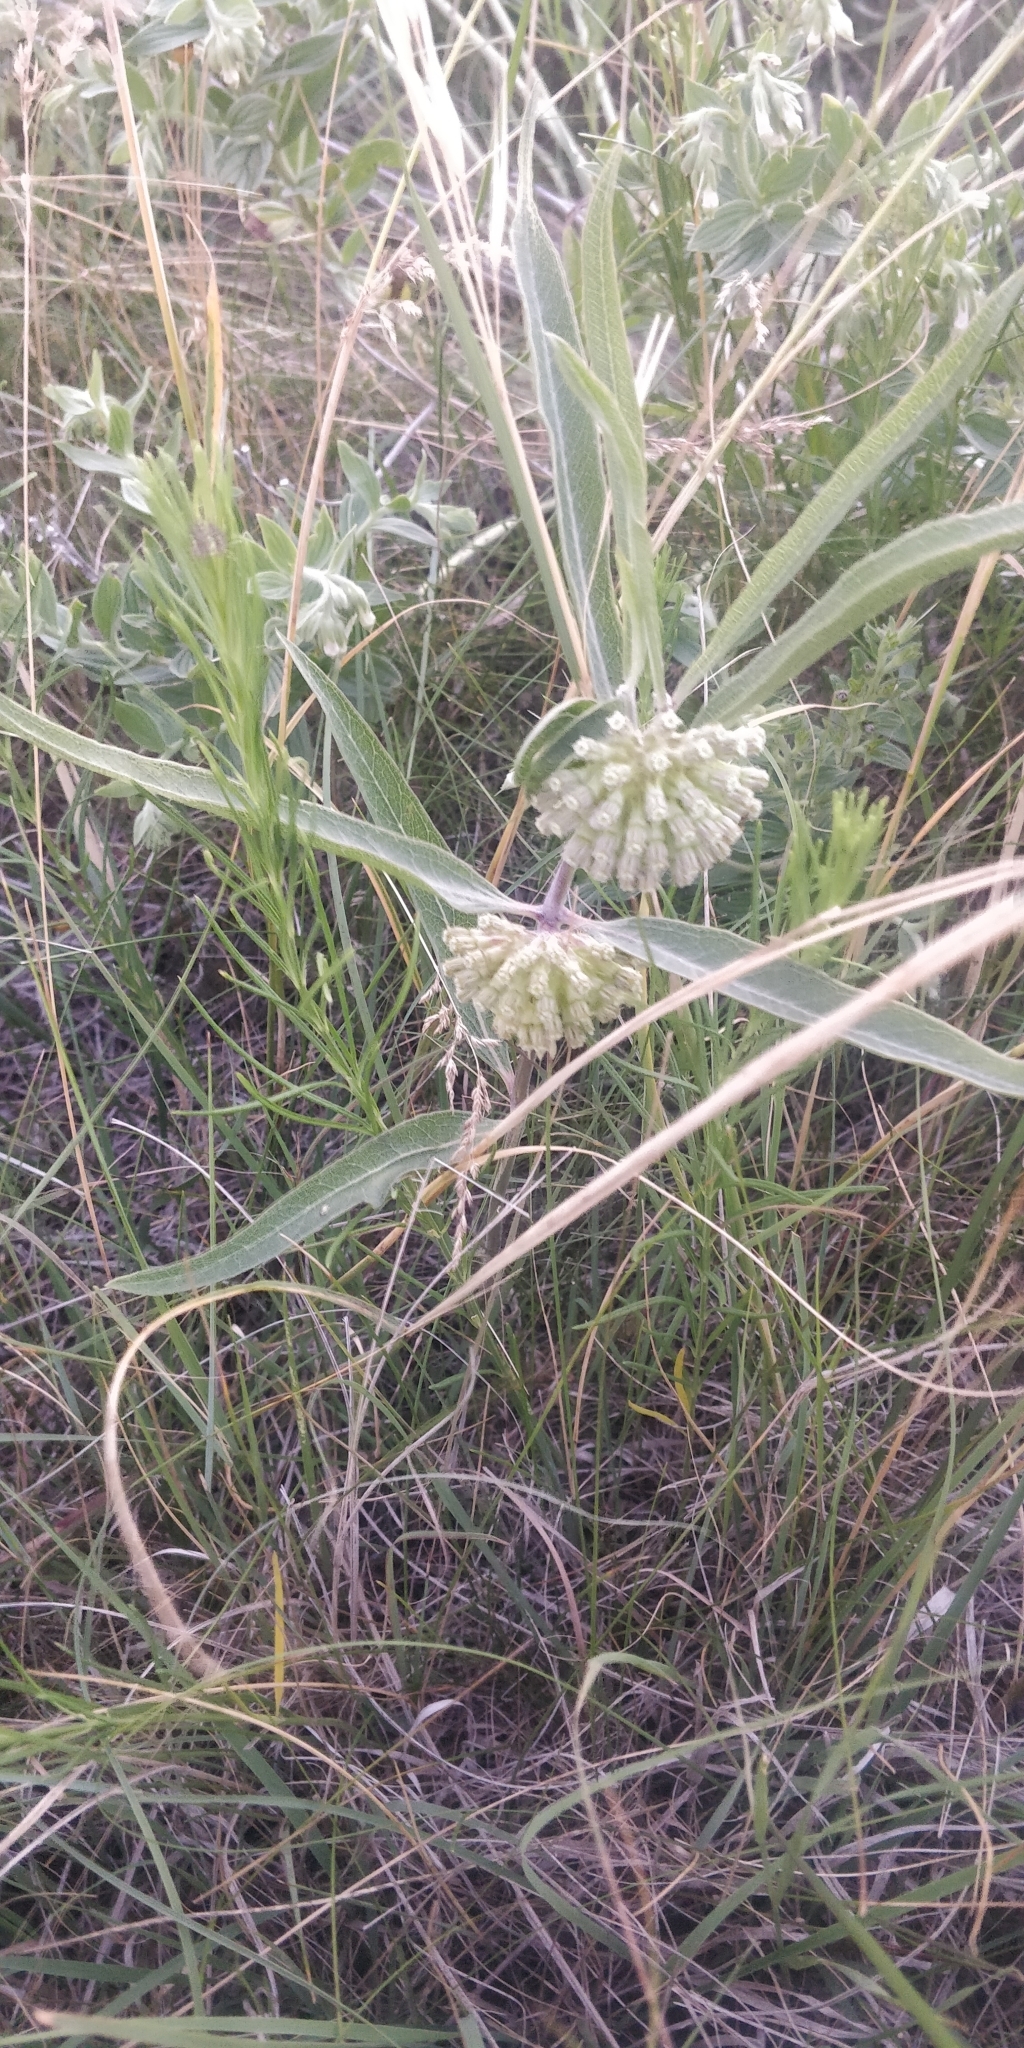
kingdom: Plantae
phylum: Tracheophyta
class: Magnoliopsida
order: Gentianales
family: Apocynaceae
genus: Asclepias
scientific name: Asclepias viridiflora
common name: Green comet milkweed
